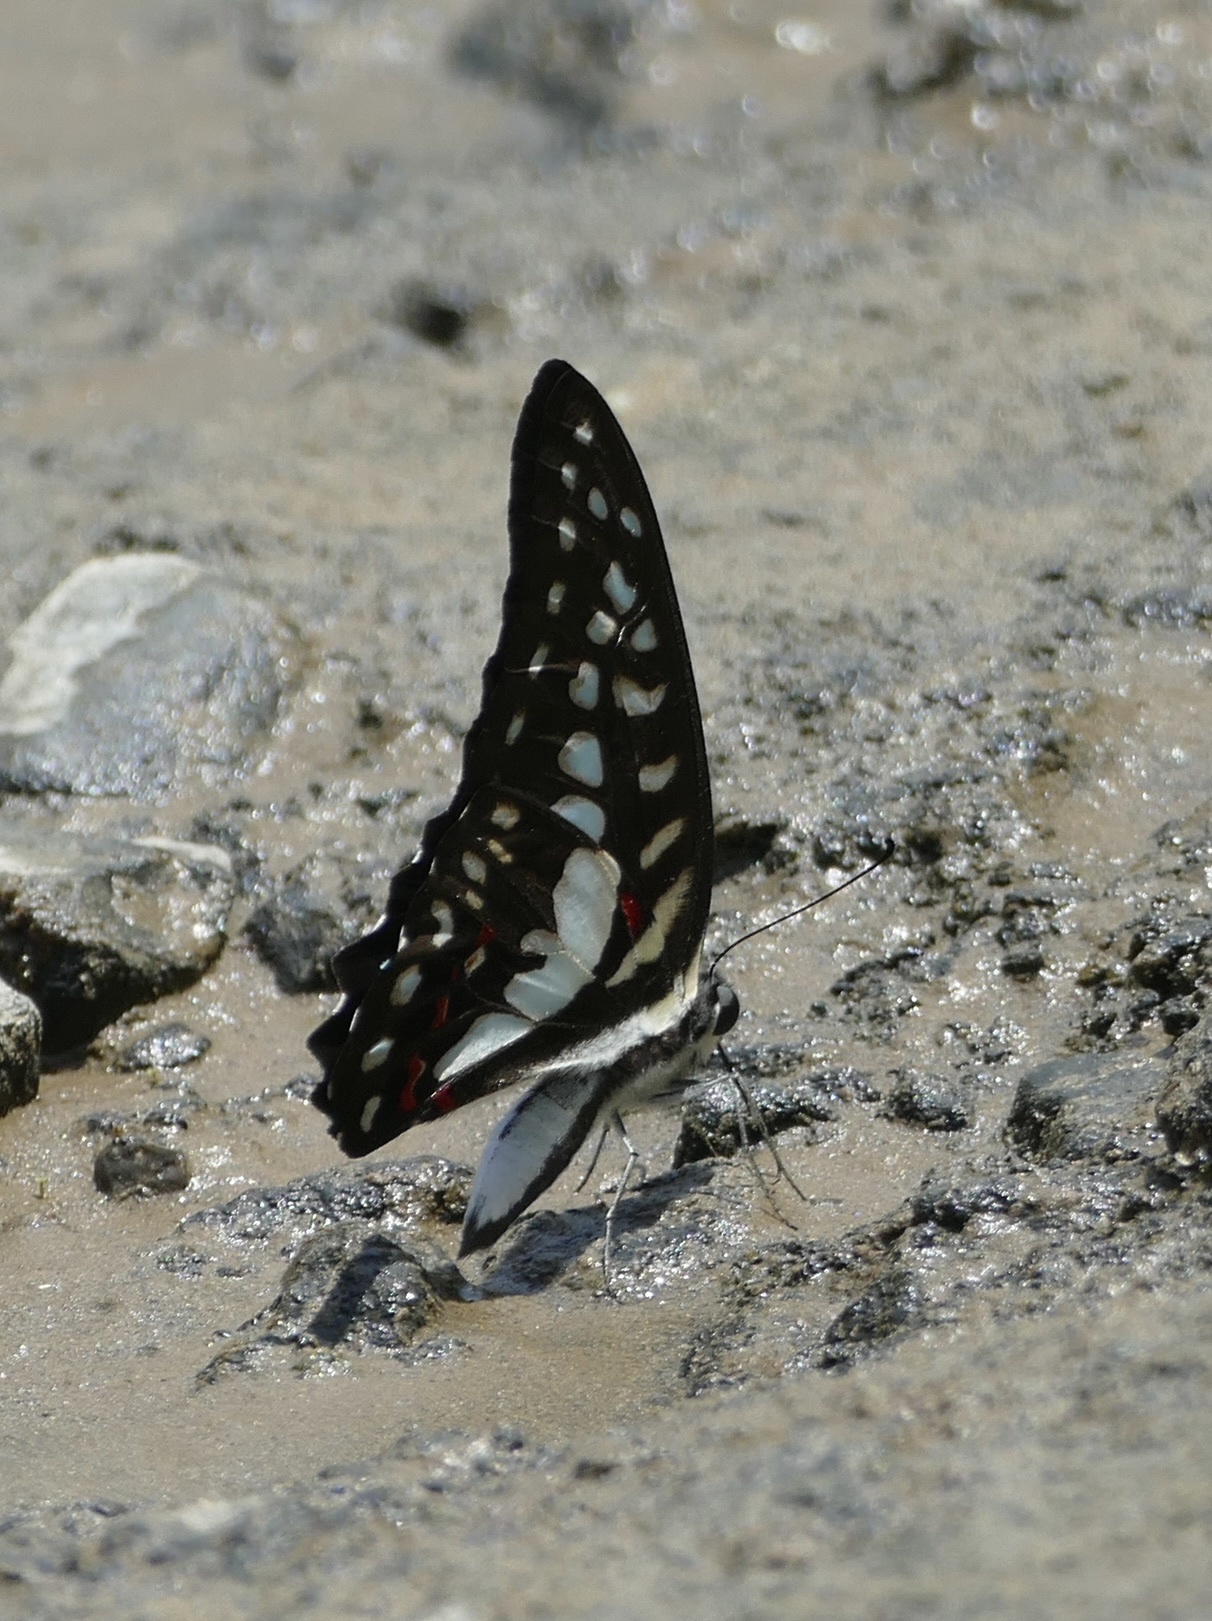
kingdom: Animalia
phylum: Arthropoda
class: Insecta
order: Lepidoptera
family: Papilionidae
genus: Graphium
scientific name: Graphium eurypylus
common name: Great jay
